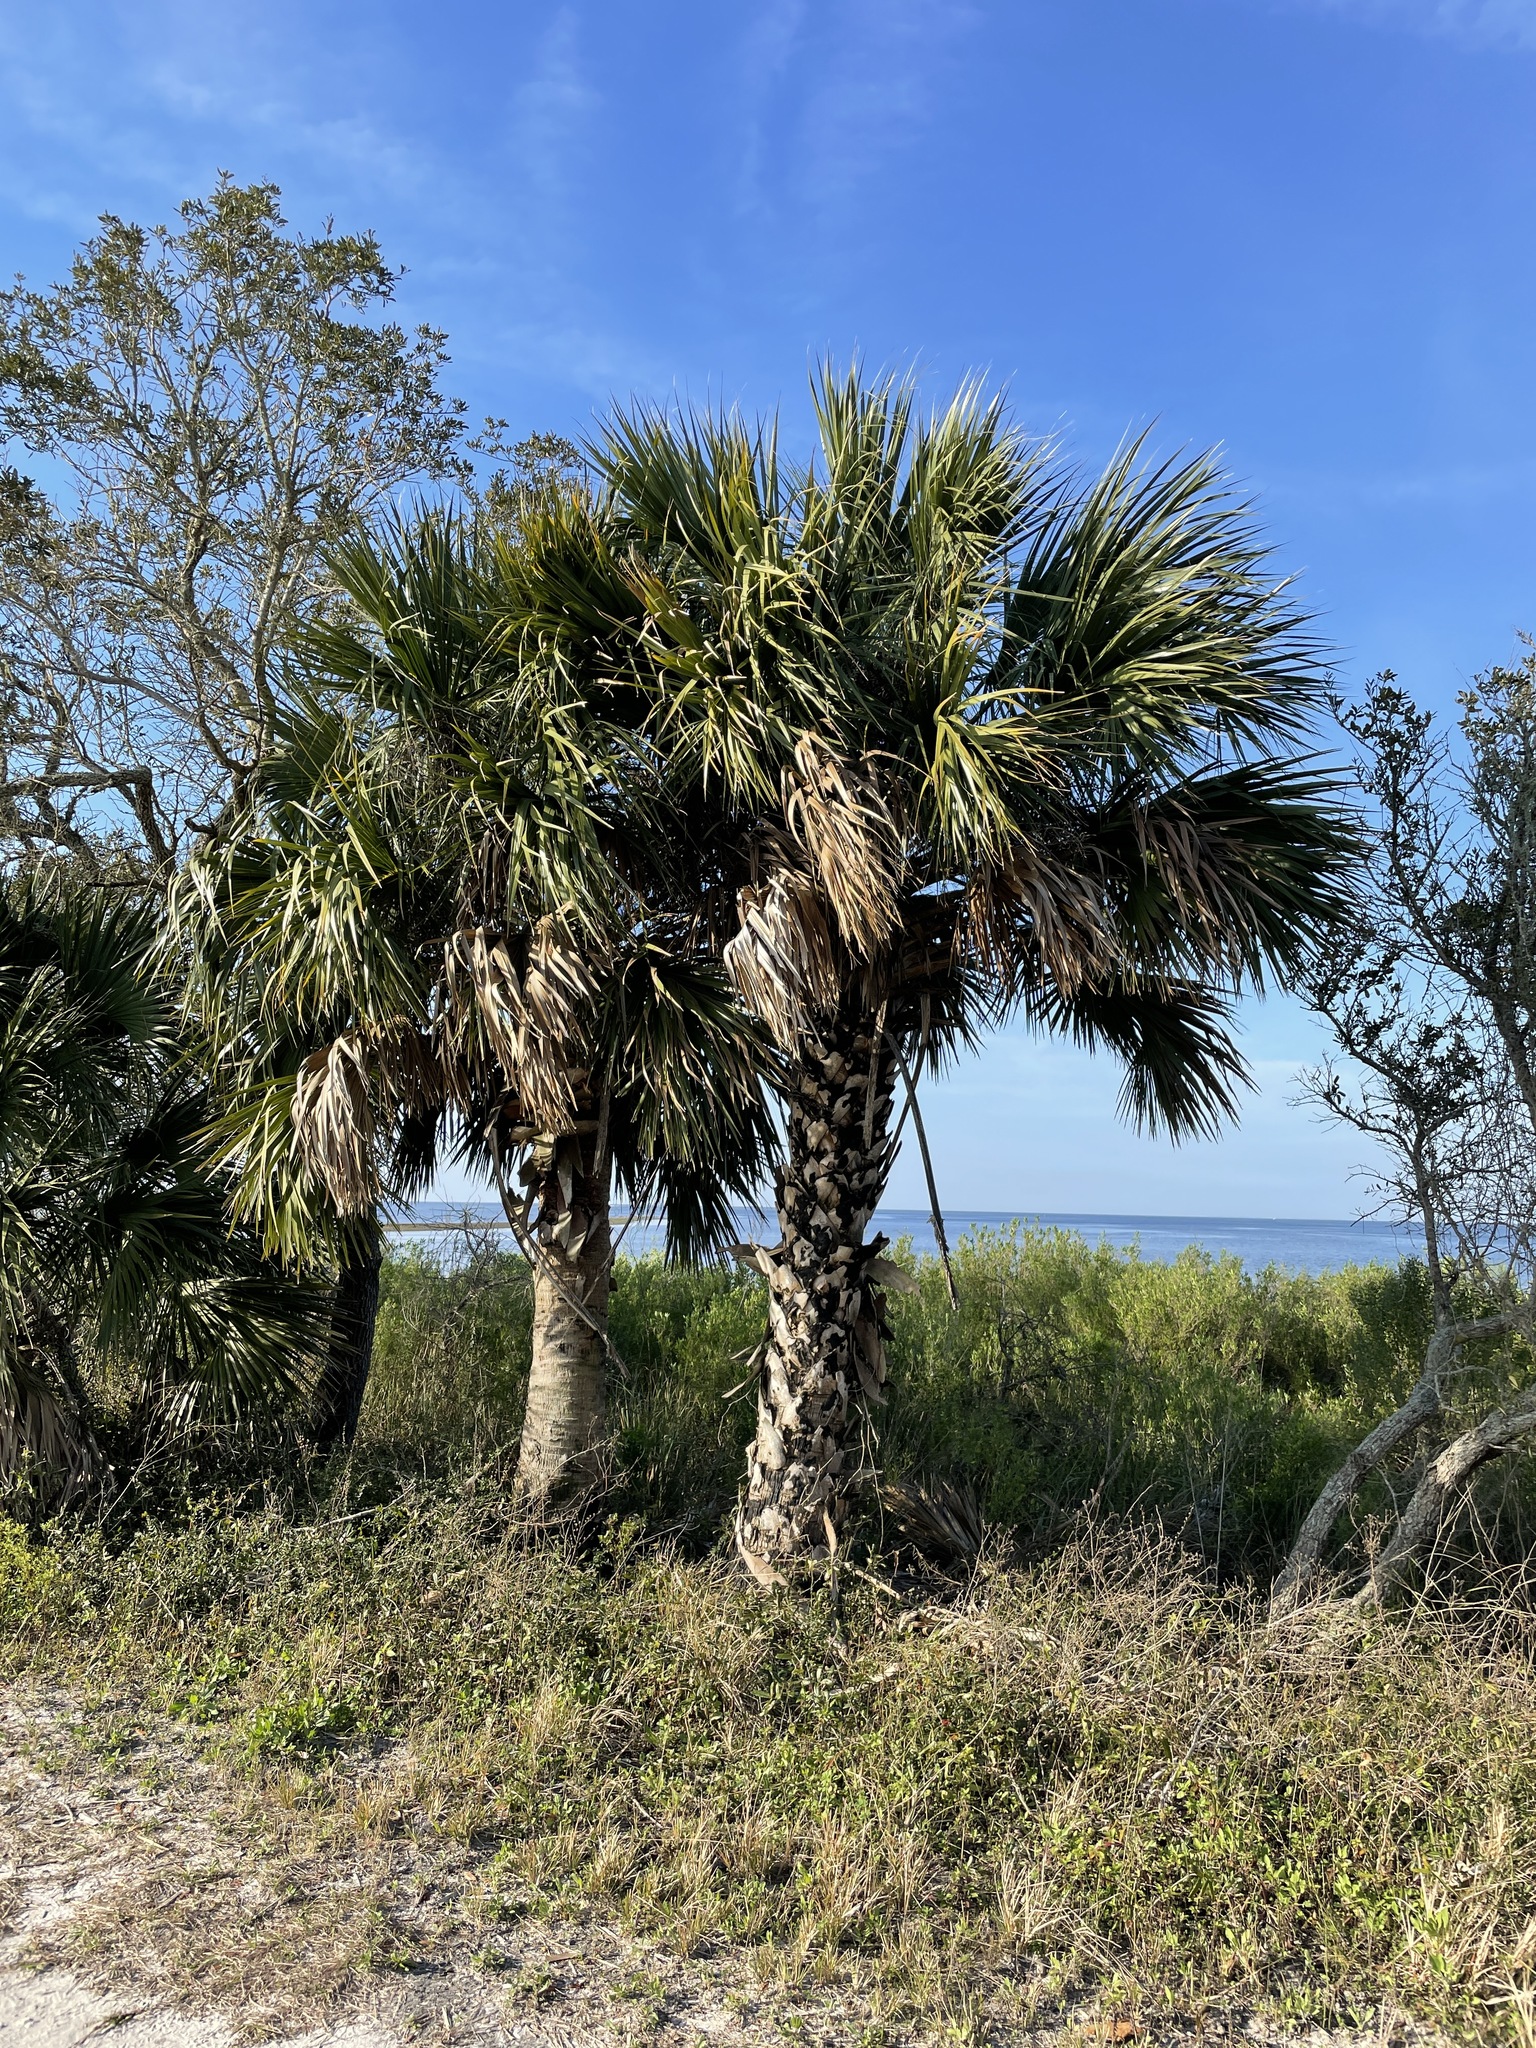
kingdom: Plantae
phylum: Tracheophyta
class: Liliopsida
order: Arecales
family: Arecaceae
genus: Sabal
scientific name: Sabal palmetto
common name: Blue palmetto
